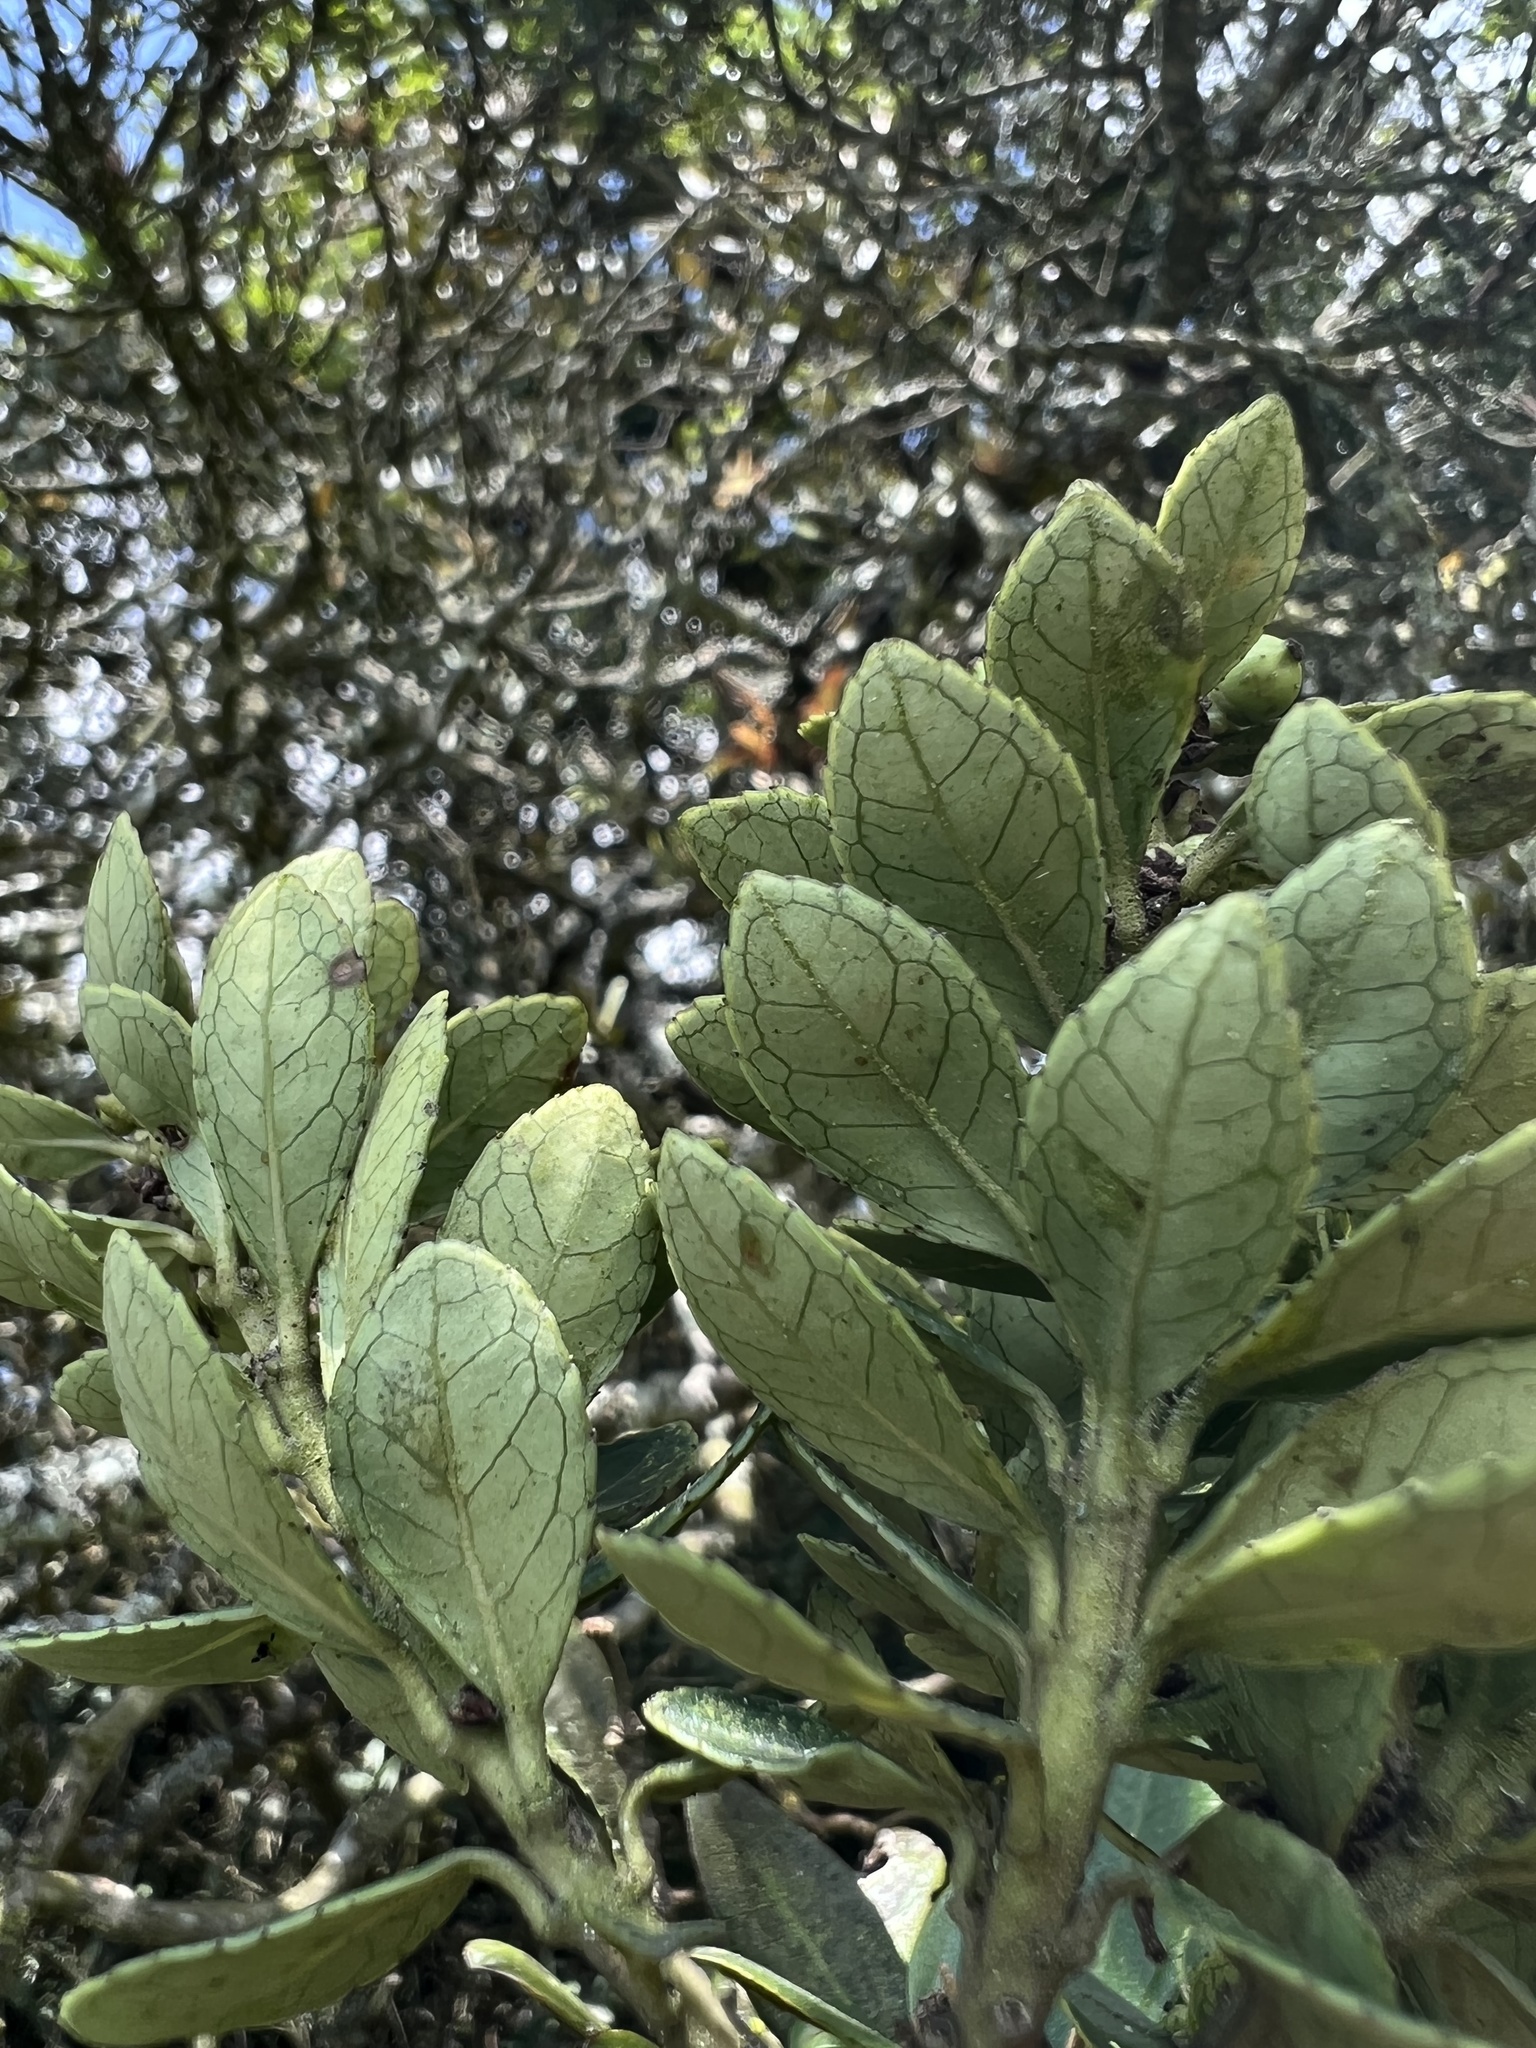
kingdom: Plantae
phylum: Tracheophyta
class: Magnoliopsida
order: Aquifoliales
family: Aquifoliaceae
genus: Ilex
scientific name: Ilex microphylla
